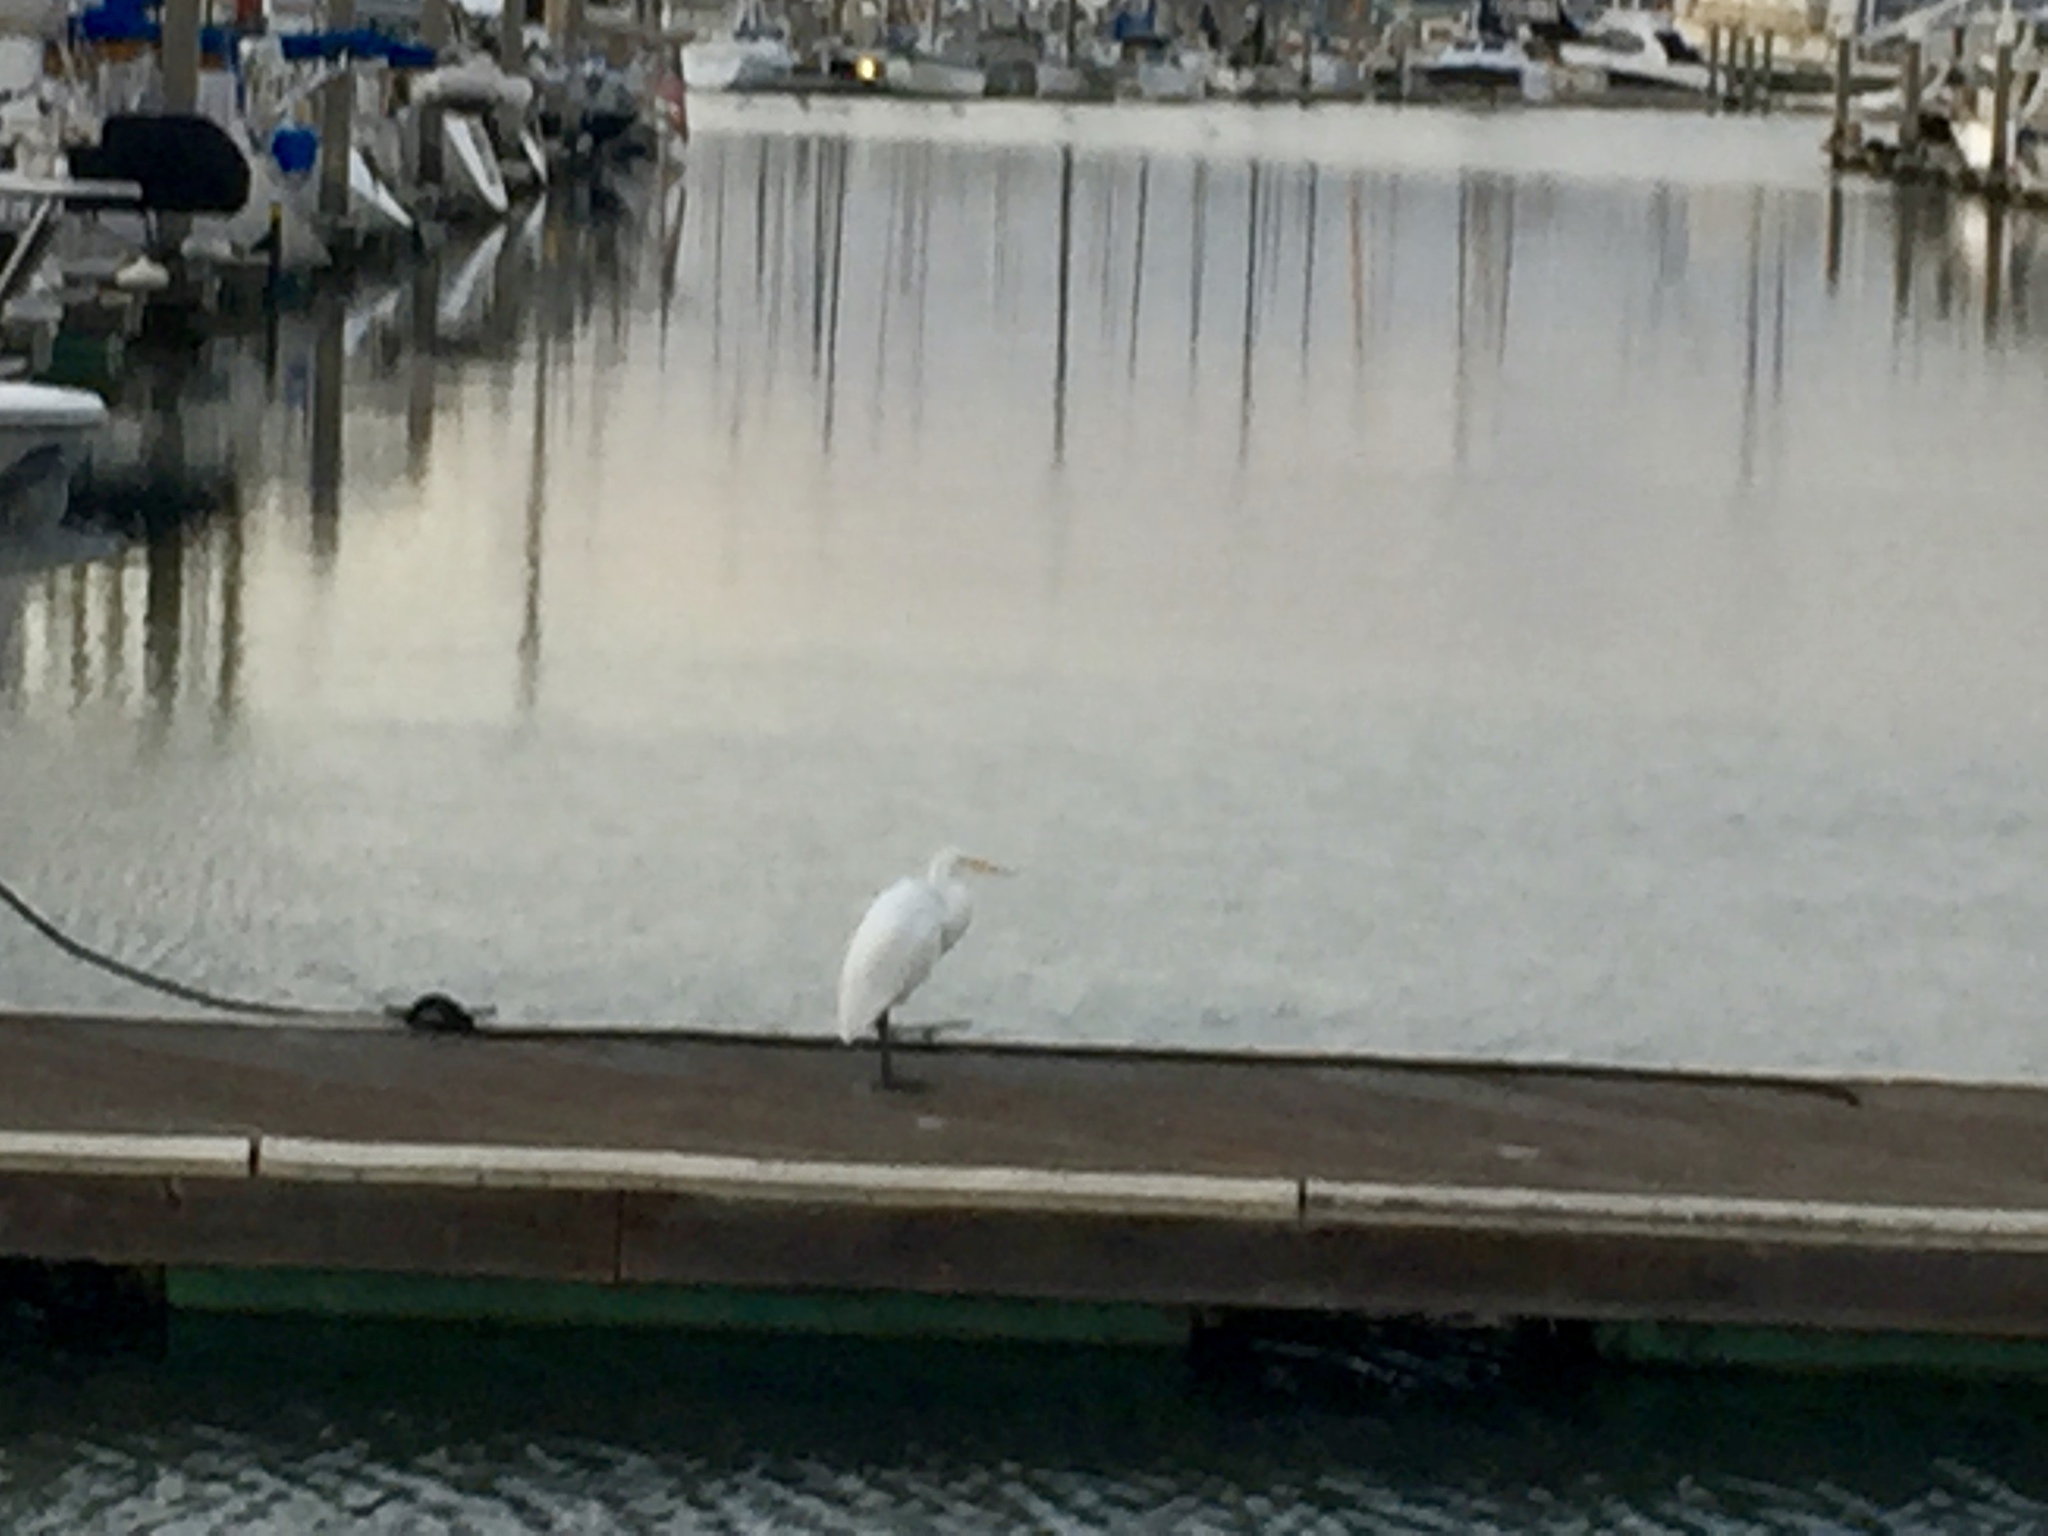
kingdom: Animalia
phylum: Chordata
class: Aves
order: Pelecaniformes
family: Ardeidae
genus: Ardea
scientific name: Ardea alba
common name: Great egret
